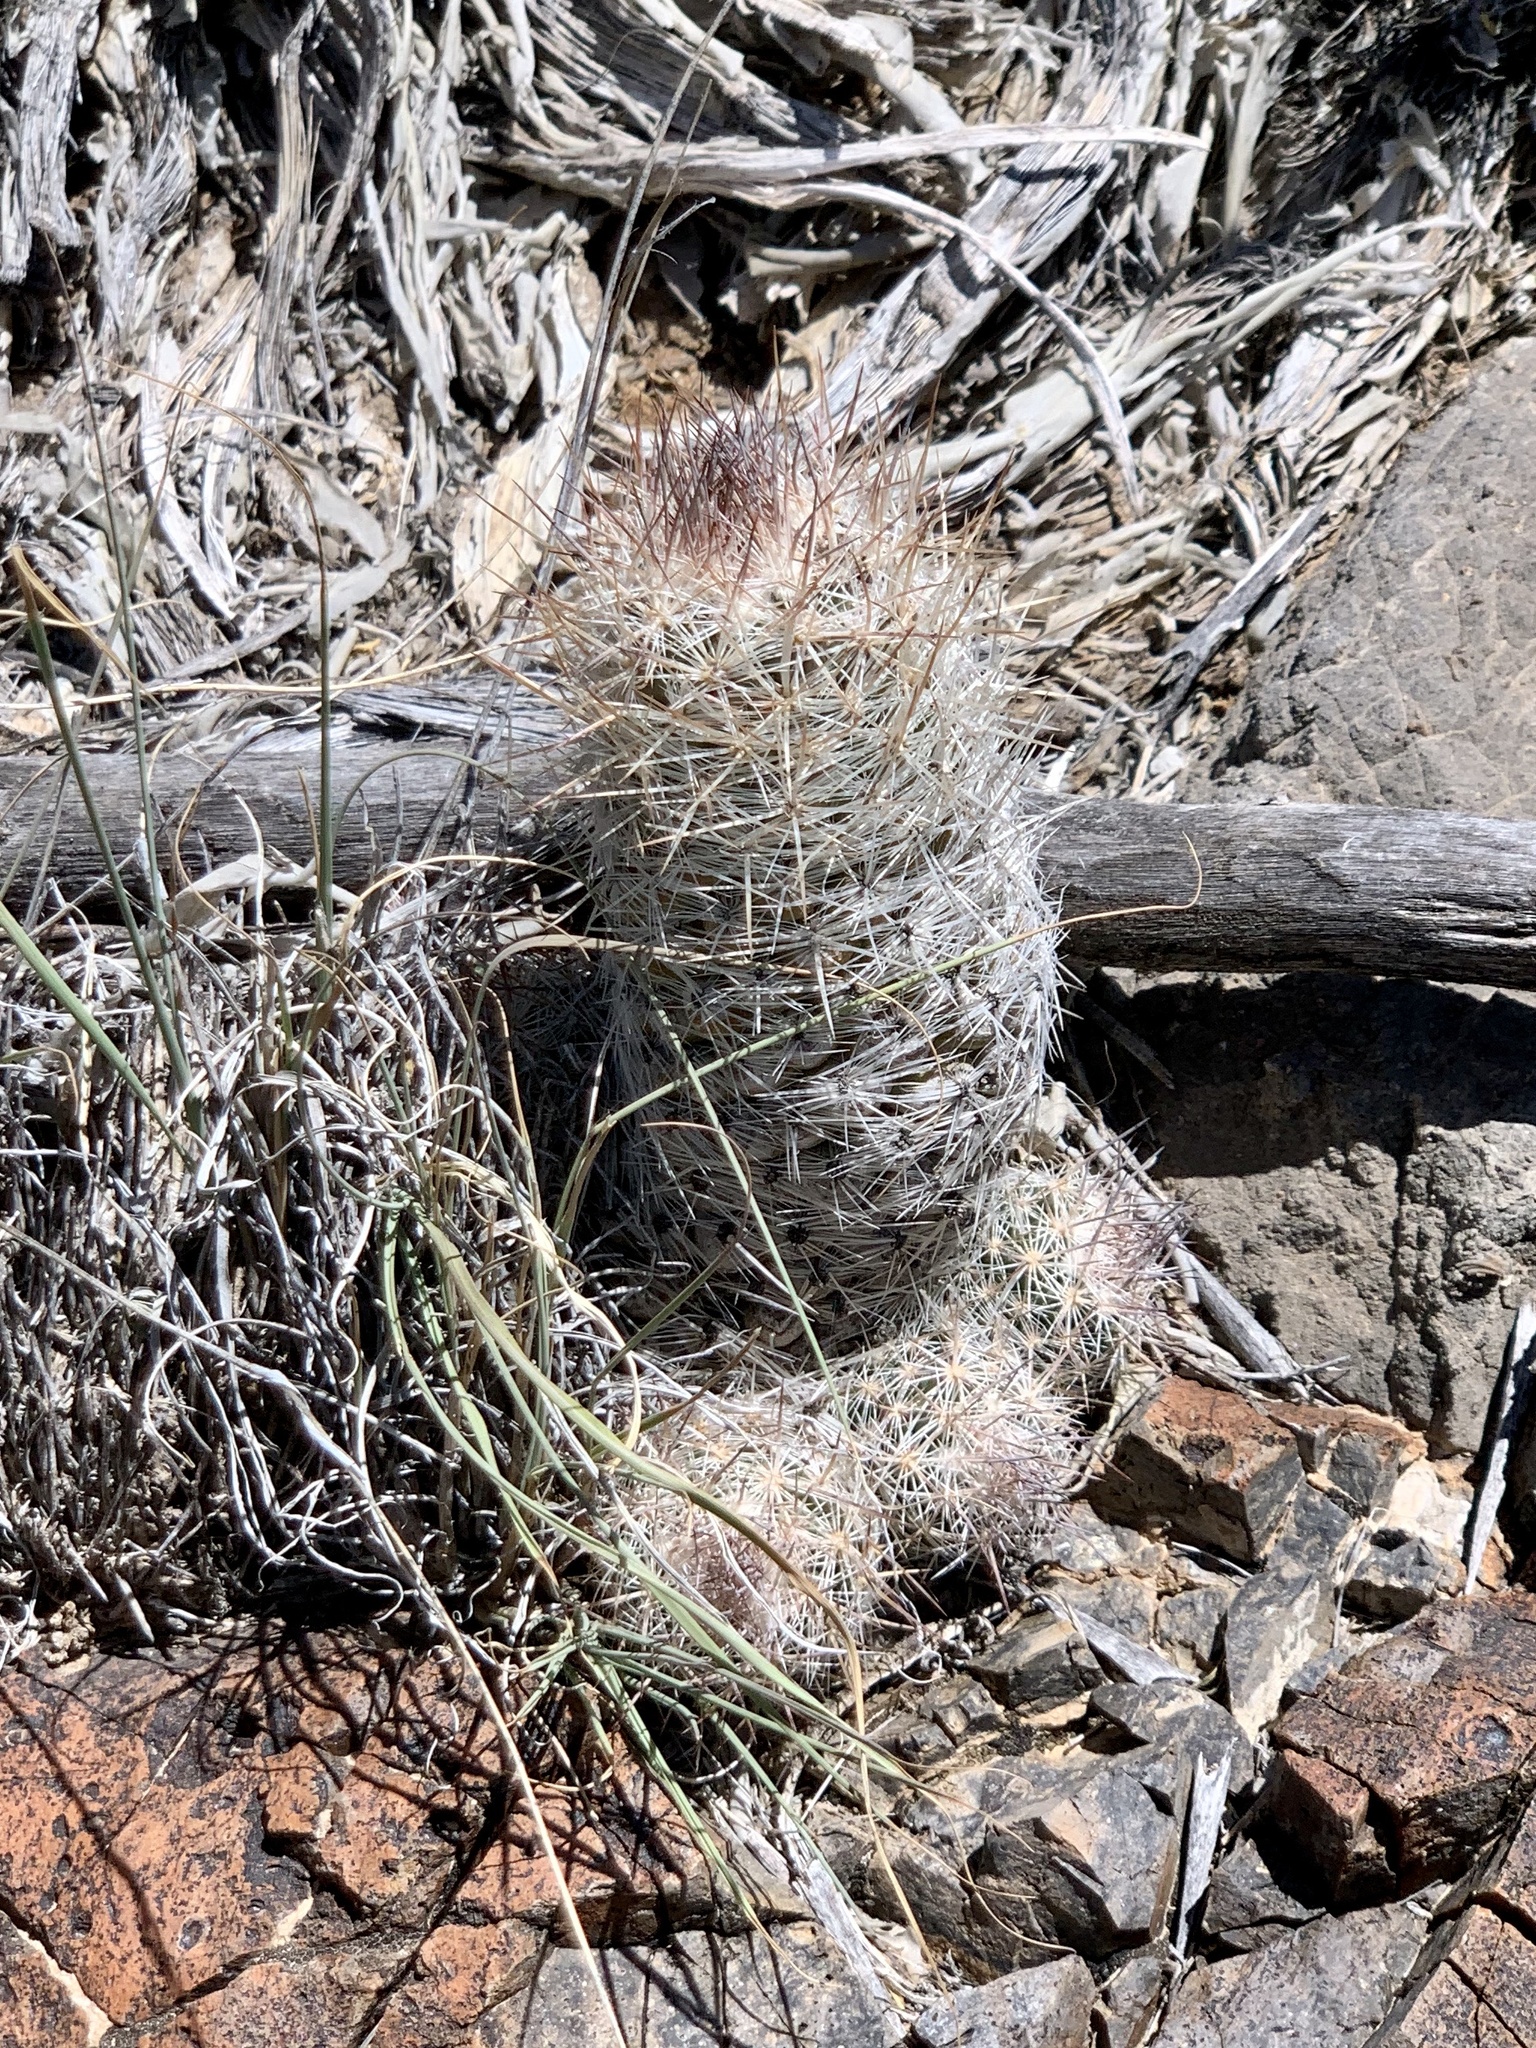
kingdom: Plantae
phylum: Tracheophyta
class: Magnoliopsida
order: Caryophyllales
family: Cactaceae
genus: Pelecyphora
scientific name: Pelecyphora tuberculosa
